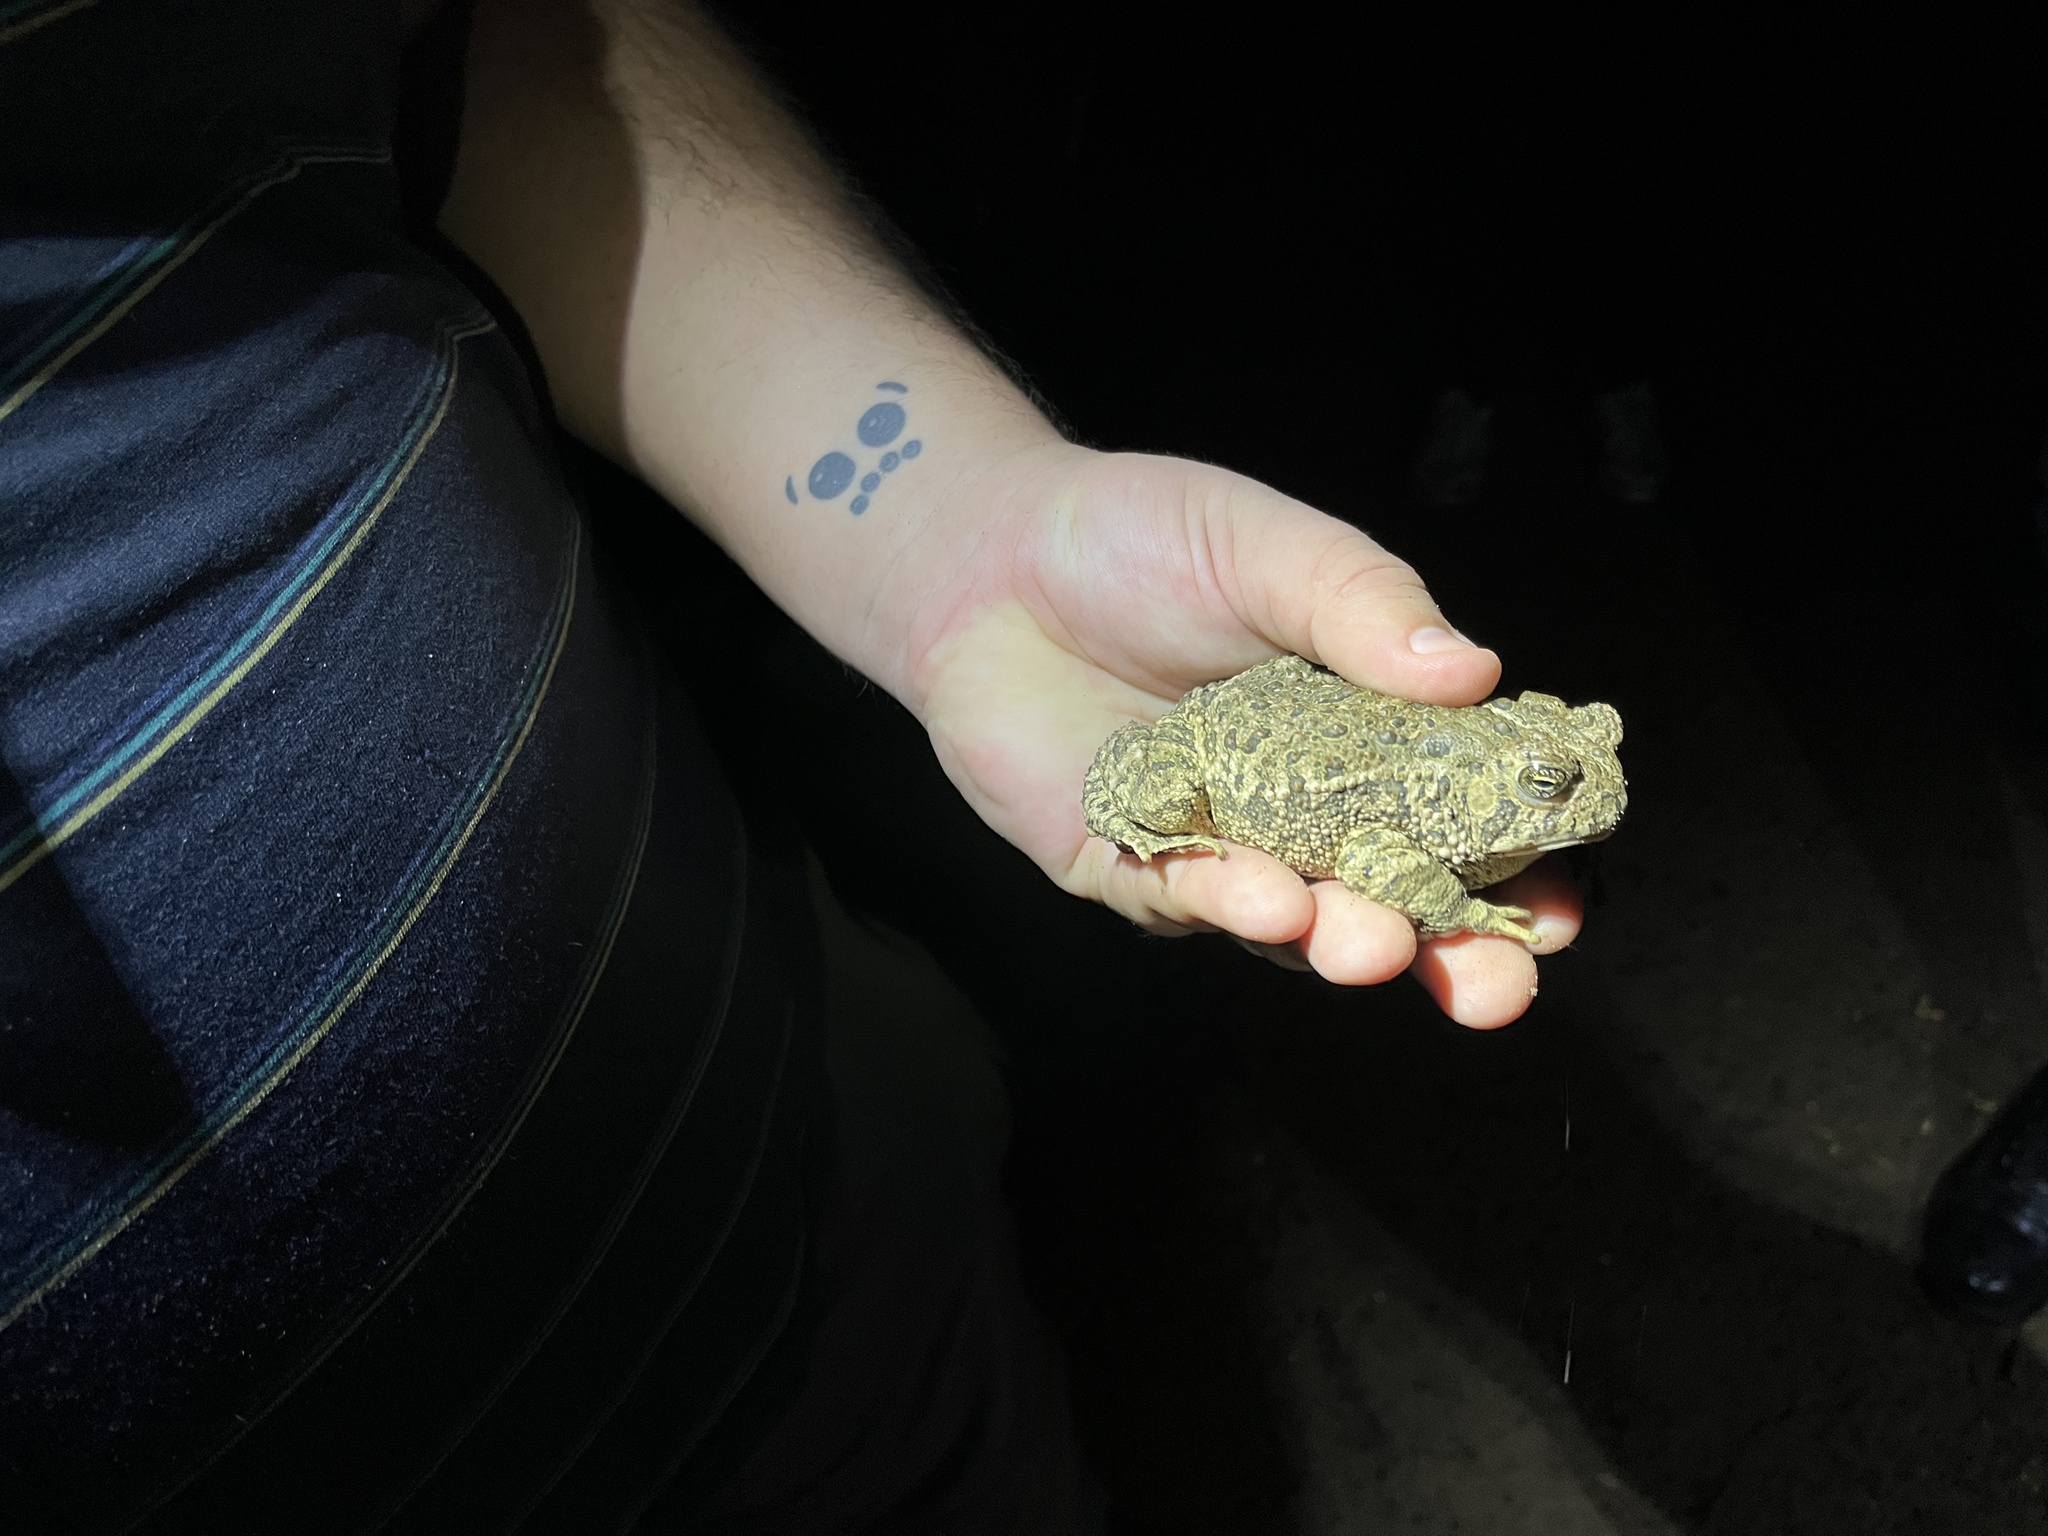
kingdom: Animalia
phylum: Chordata
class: Amphibia
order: Anura
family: Bufonidae
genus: Anaxyrus
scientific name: Anaxyrus woodhousii
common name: Woodhouse's toad
